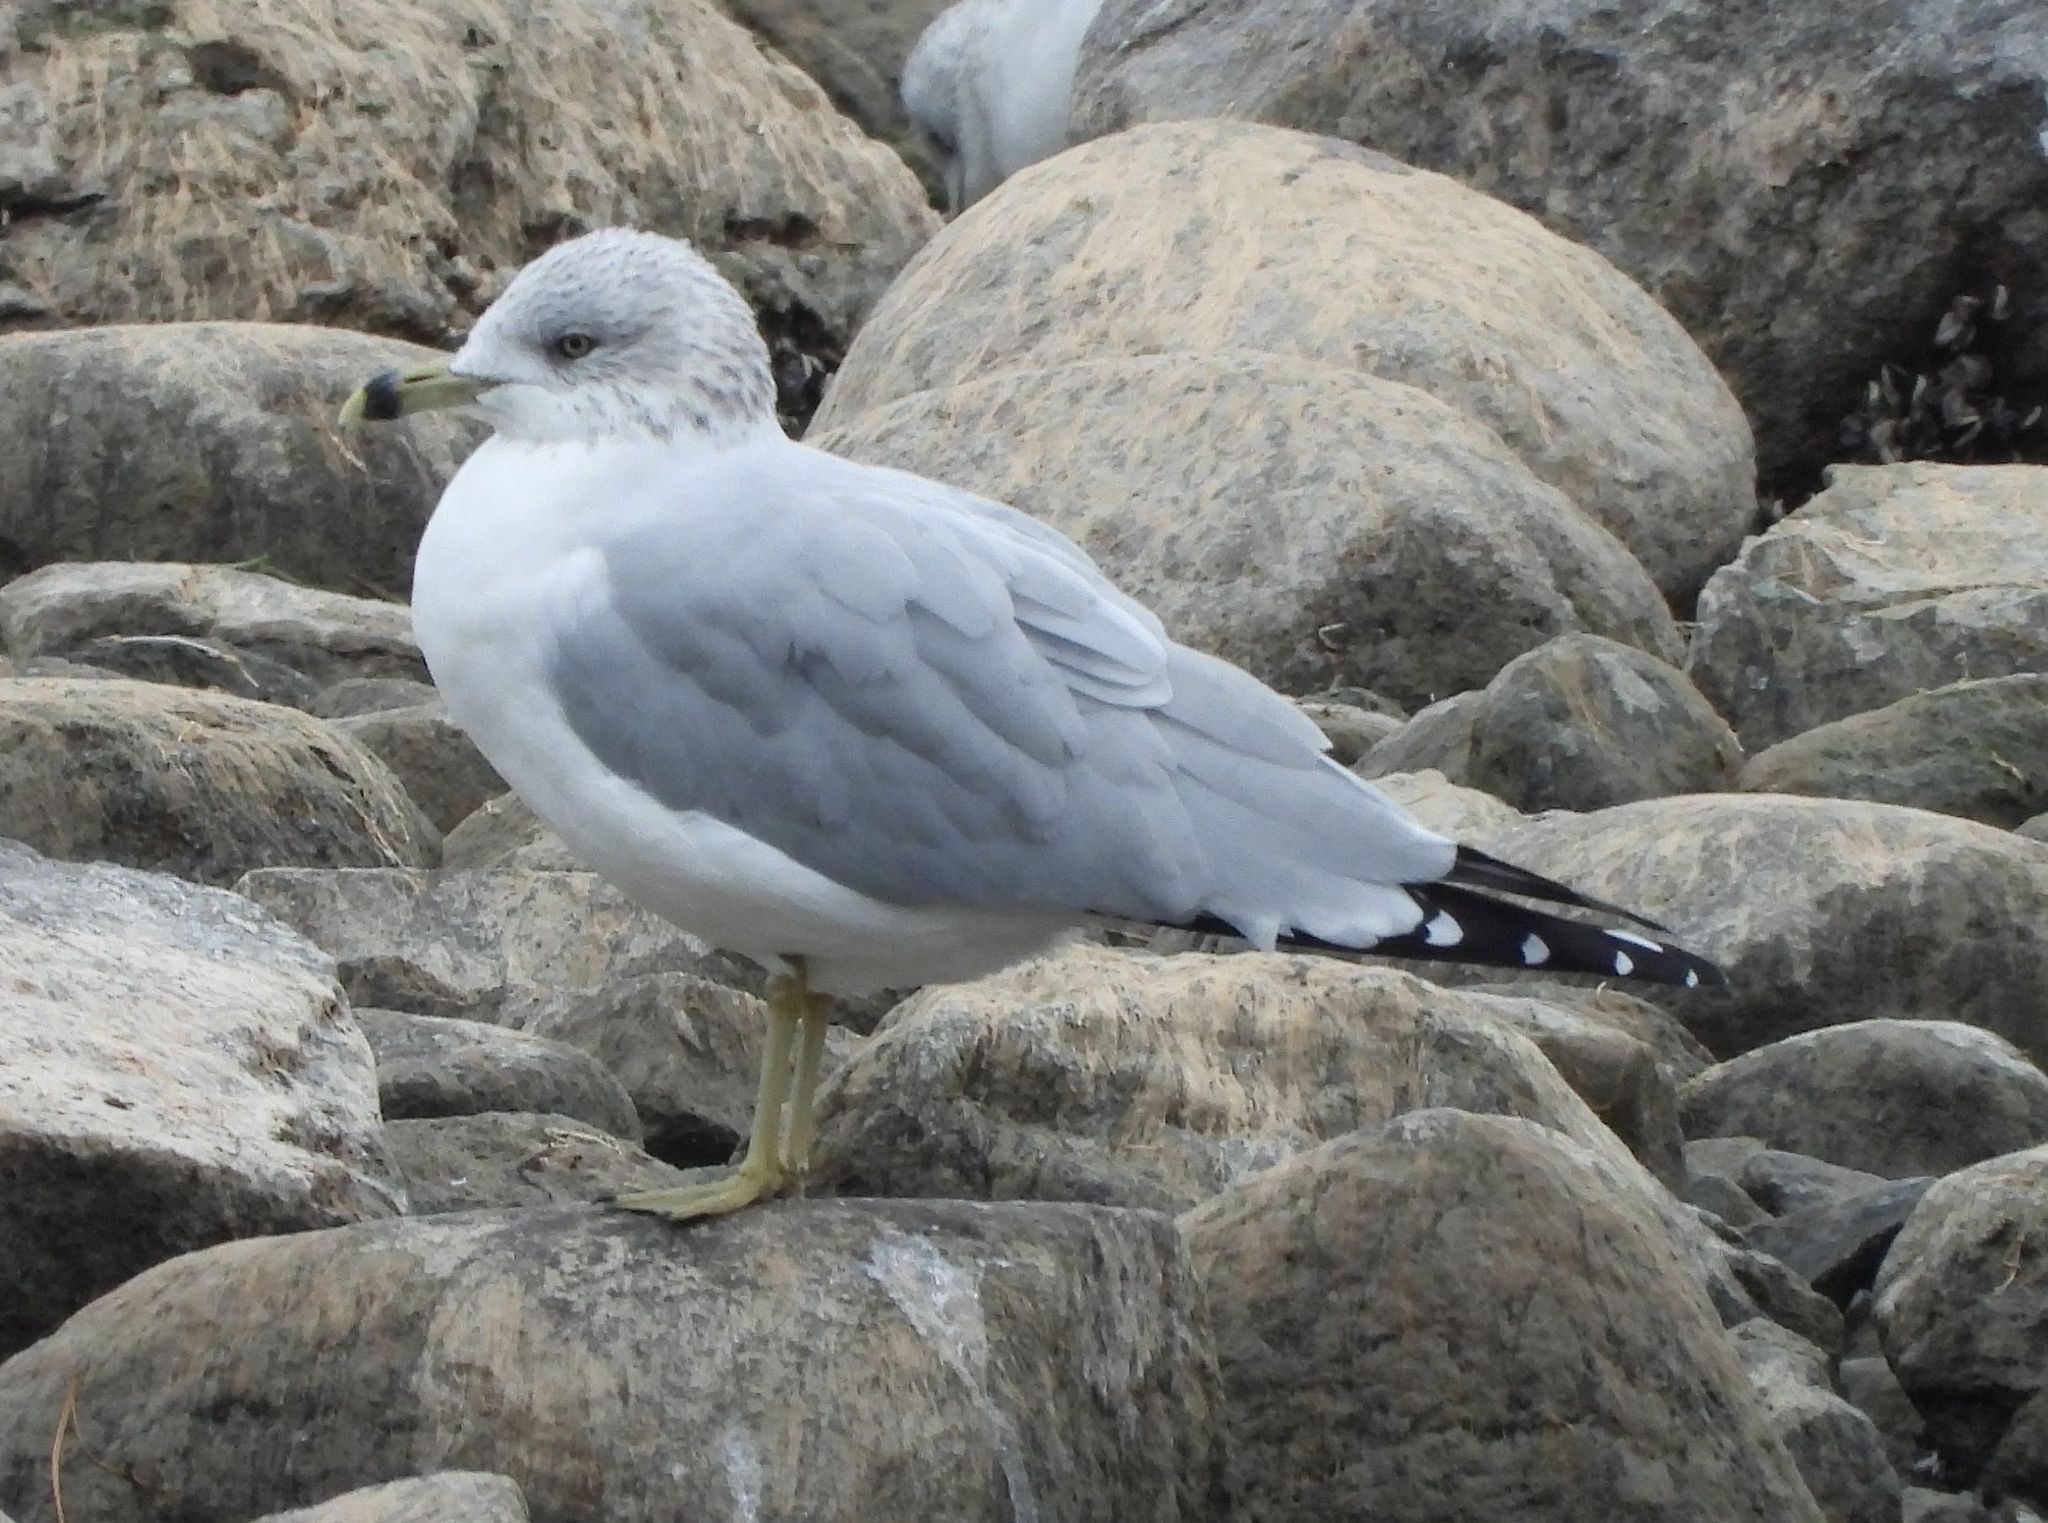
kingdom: Animalia
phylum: Chordata
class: Aves
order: Charadriiformes
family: Laridae
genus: Larus
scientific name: Larus delawarensis
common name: Ring-billed gull
